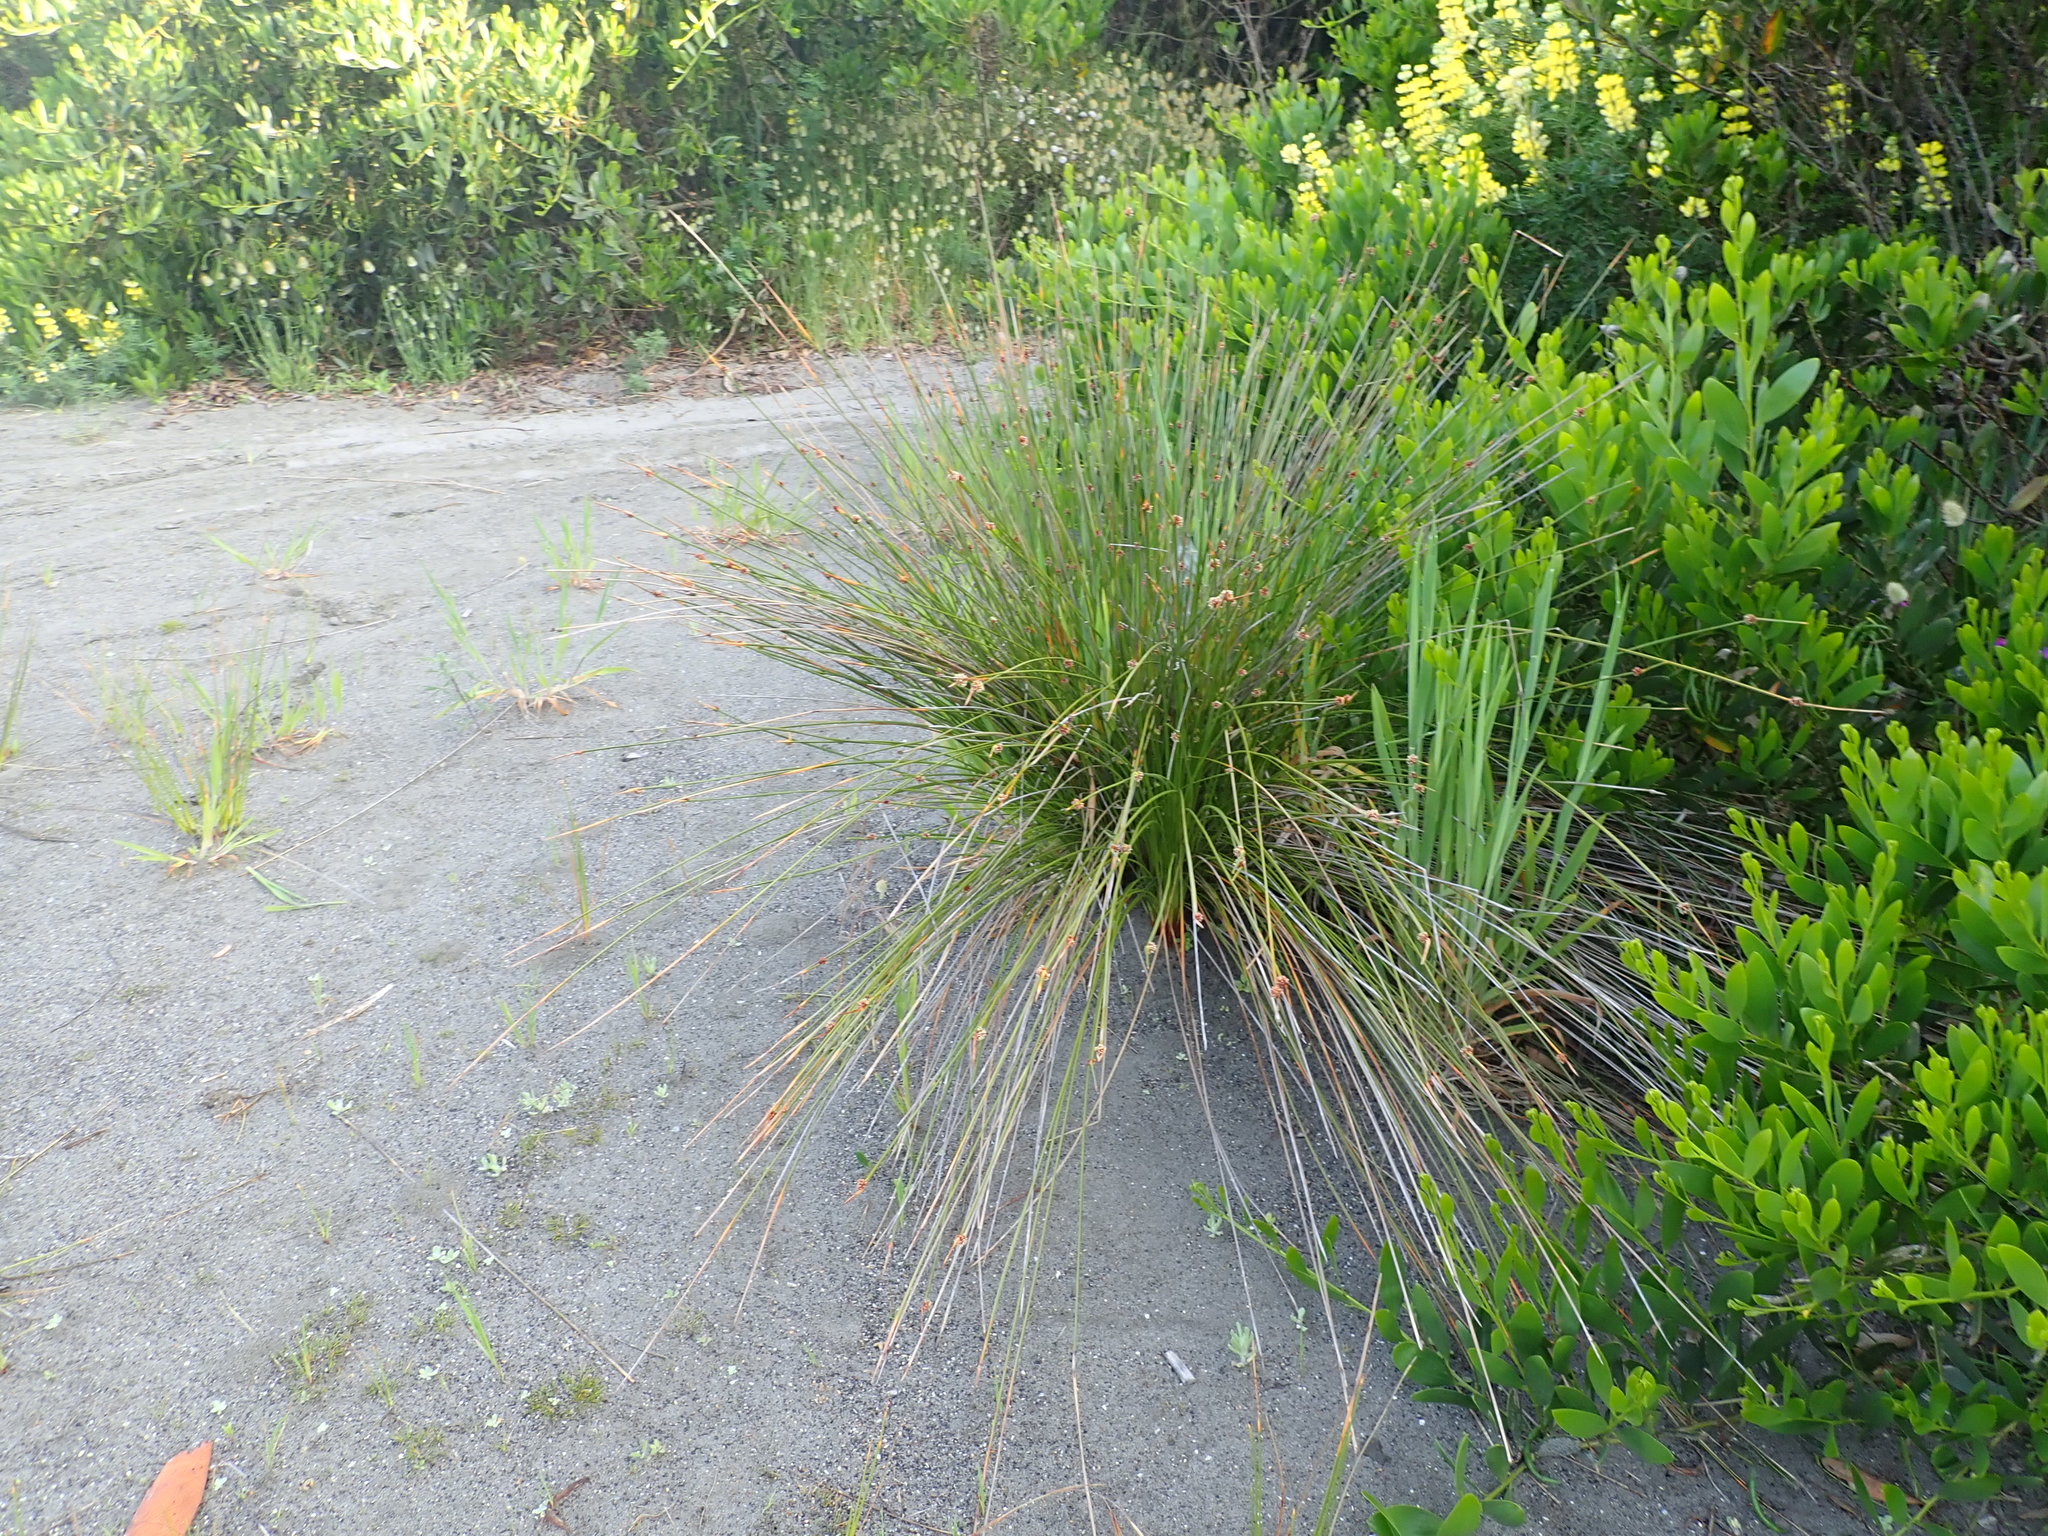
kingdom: Plantae
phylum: Tracheophyta
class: Liliopsida
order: Poales
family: Cyperaceae
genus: Ficinia
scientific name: Ficinia nodosa
